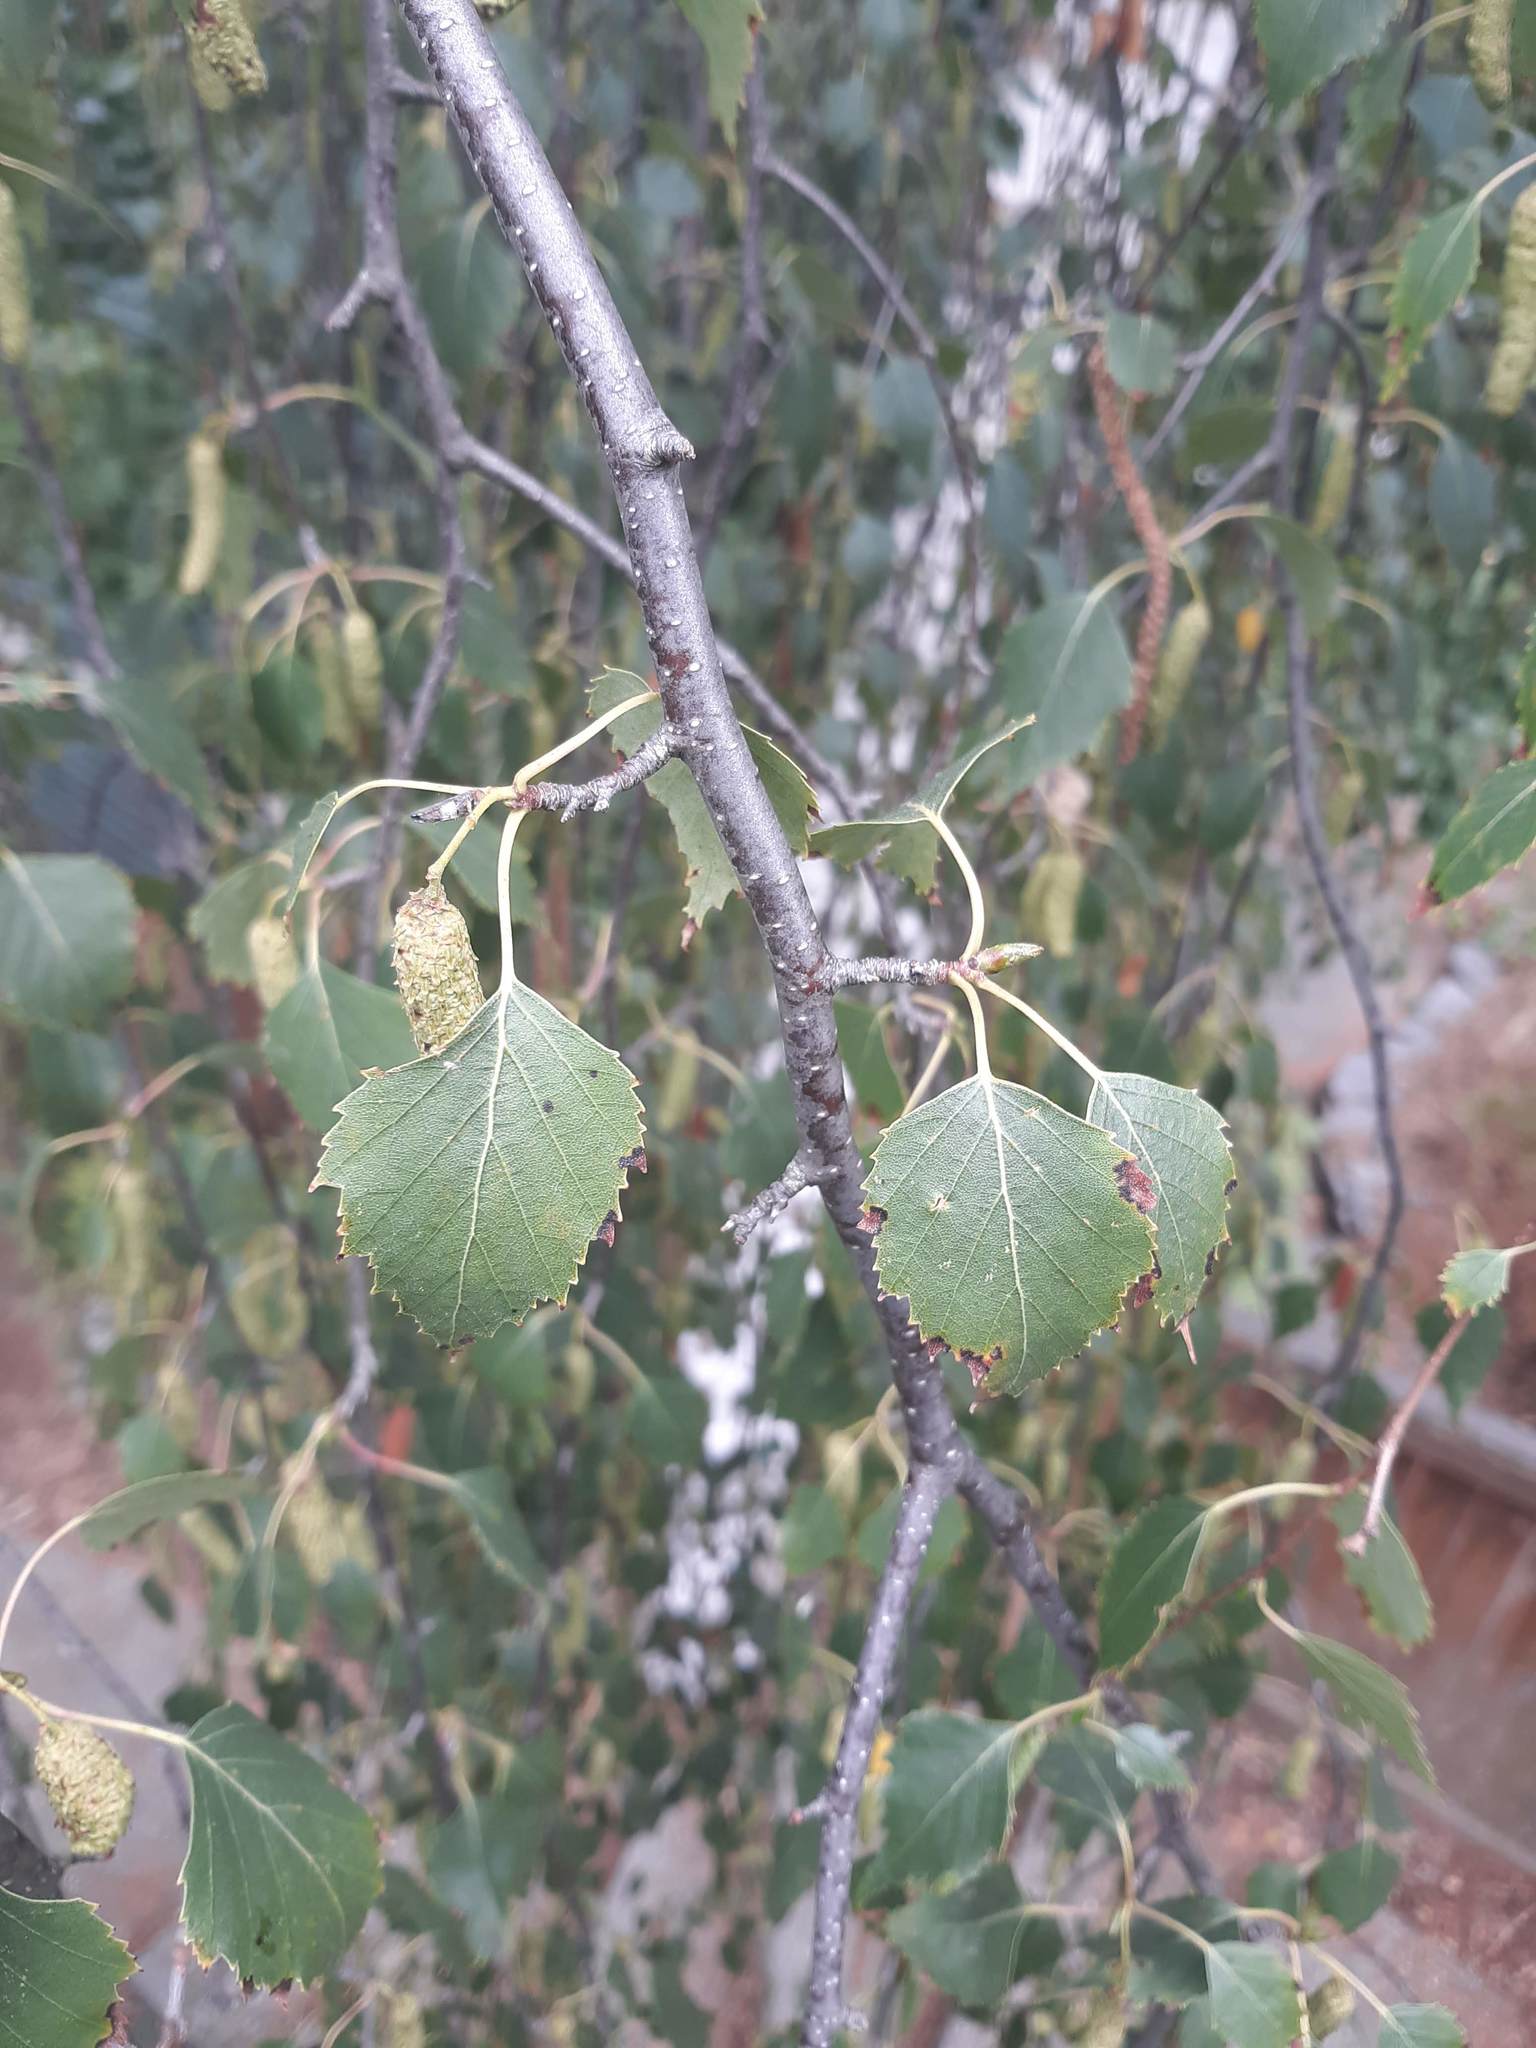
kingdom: Plantae
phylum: Tracheophyta
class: Magnoliopsida
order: Fagales
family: Betulaceae
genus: Betula
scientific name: Betula pendula
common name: Silver birch
